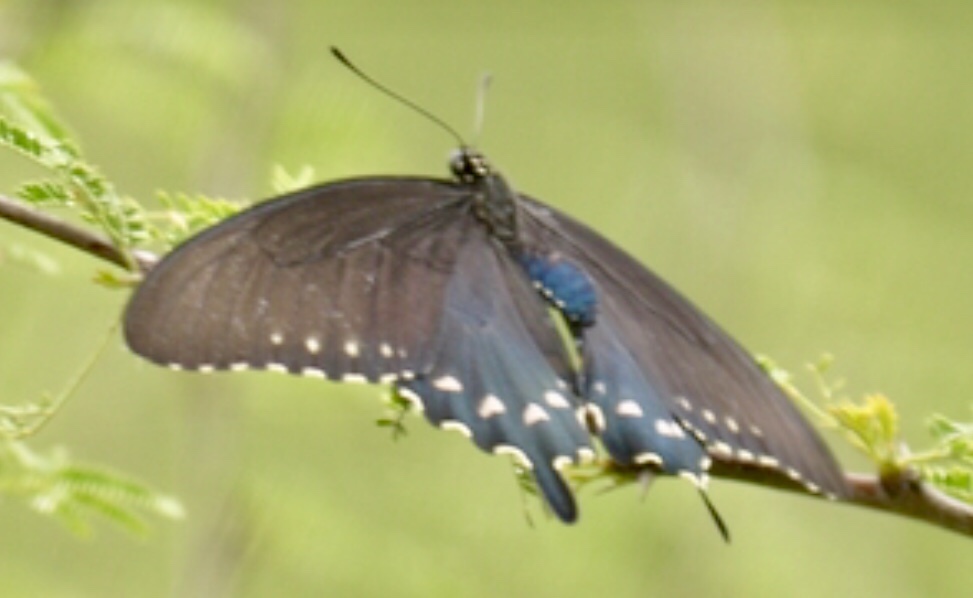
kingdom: Animalia
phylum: Arthropoda
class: Insecta
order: Lepidoptera
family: Papilionidae
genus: Battus
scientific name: Battus philenor
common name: Pipevine swallowtail
